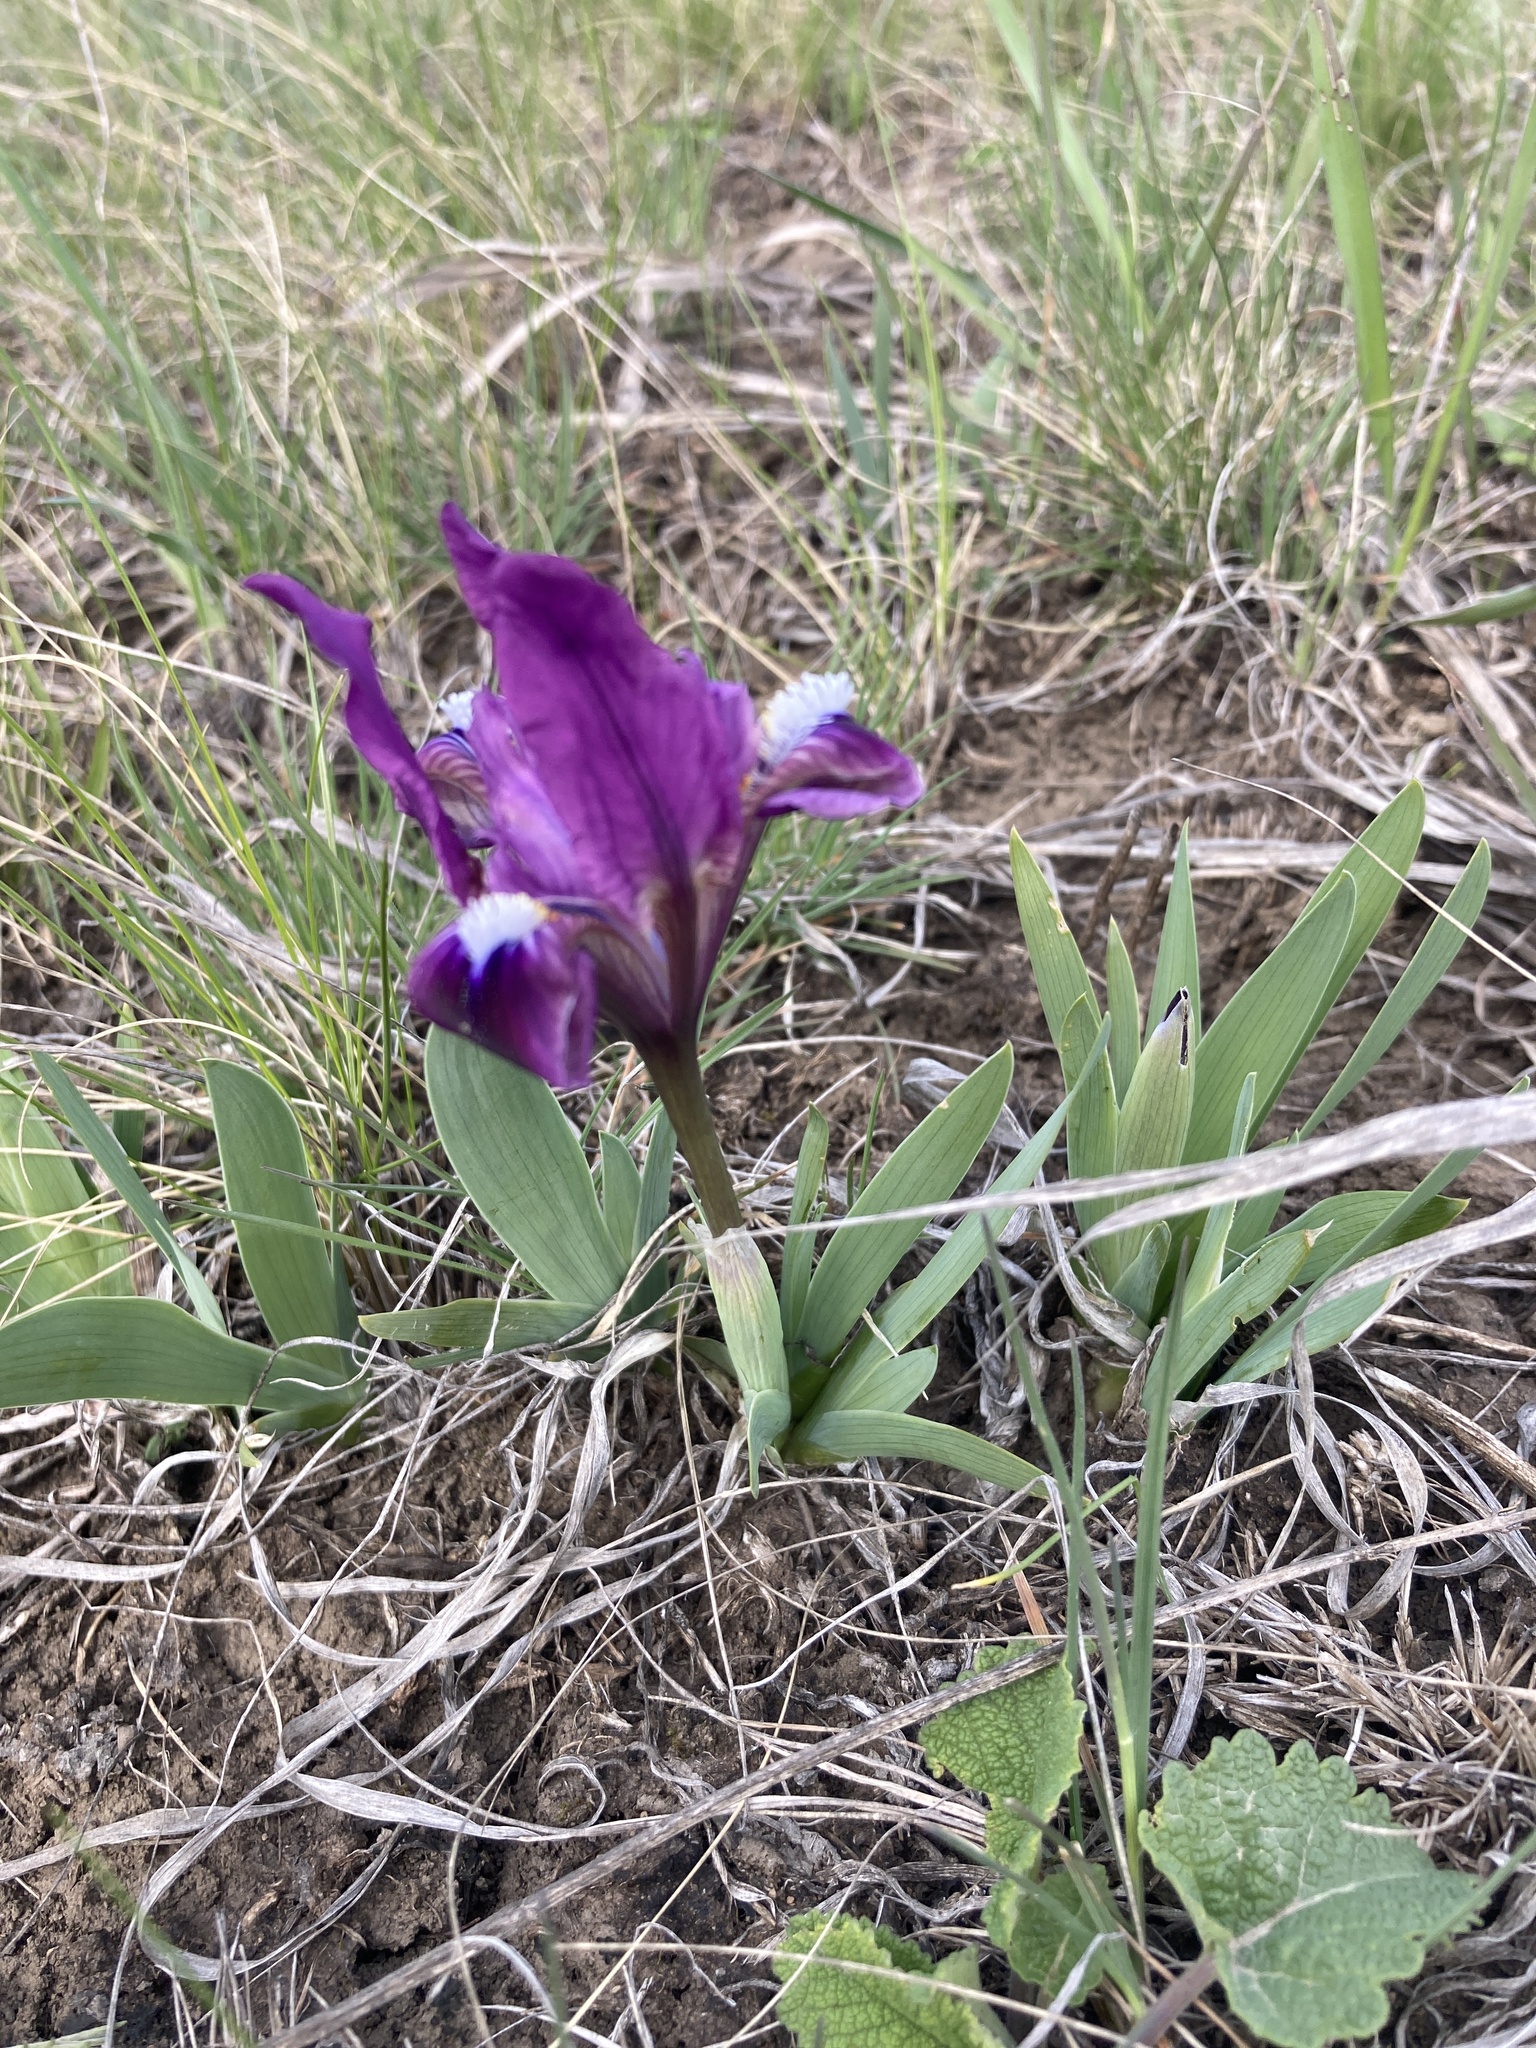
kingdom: Plantae
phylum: Tracheophyta
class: Liliopsida
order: Asparagales
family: Iridaceae
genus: Iris
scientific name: Iris pumila
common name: Dwarf iris
